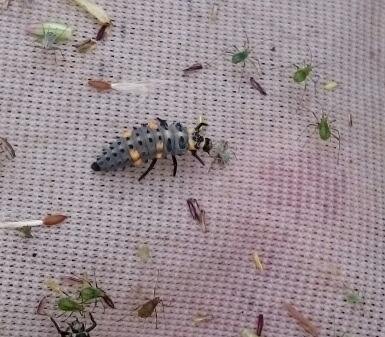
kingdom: Animalia
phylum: Arthropoda
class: Insecta
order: Coleoptera
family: Coccinellidae
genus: Coccinella
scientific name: Coccinella septempunctata
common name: Sevenspotted lady beetle
